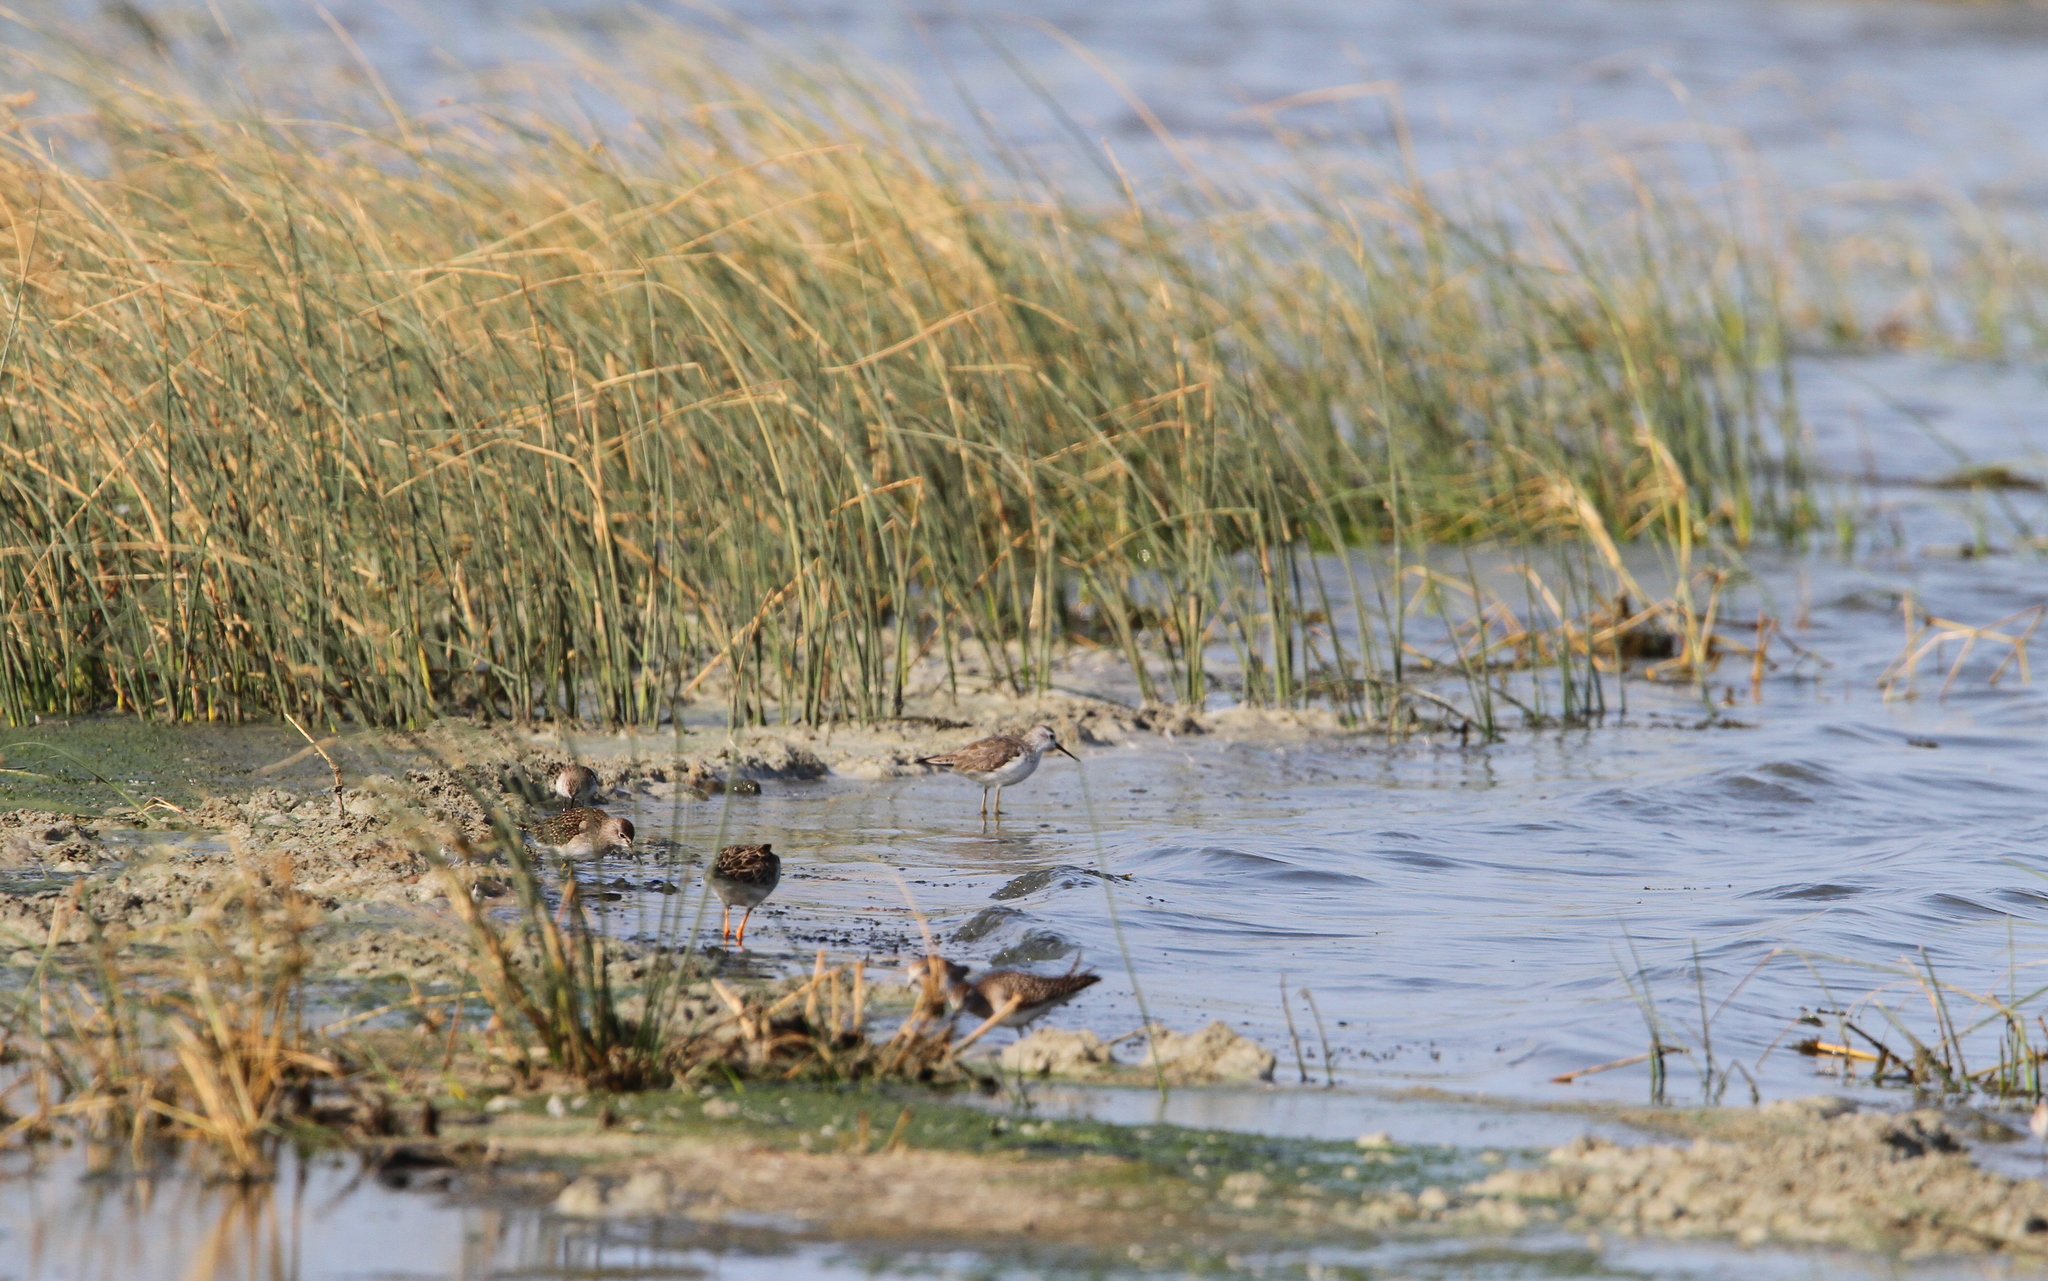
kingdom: Animalia
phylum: Chordata
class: Aves
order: Charadriiformes
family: Scolopacidae
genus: Tringa
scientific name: Tringa stagnatilis
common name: Marsh sandpiper
